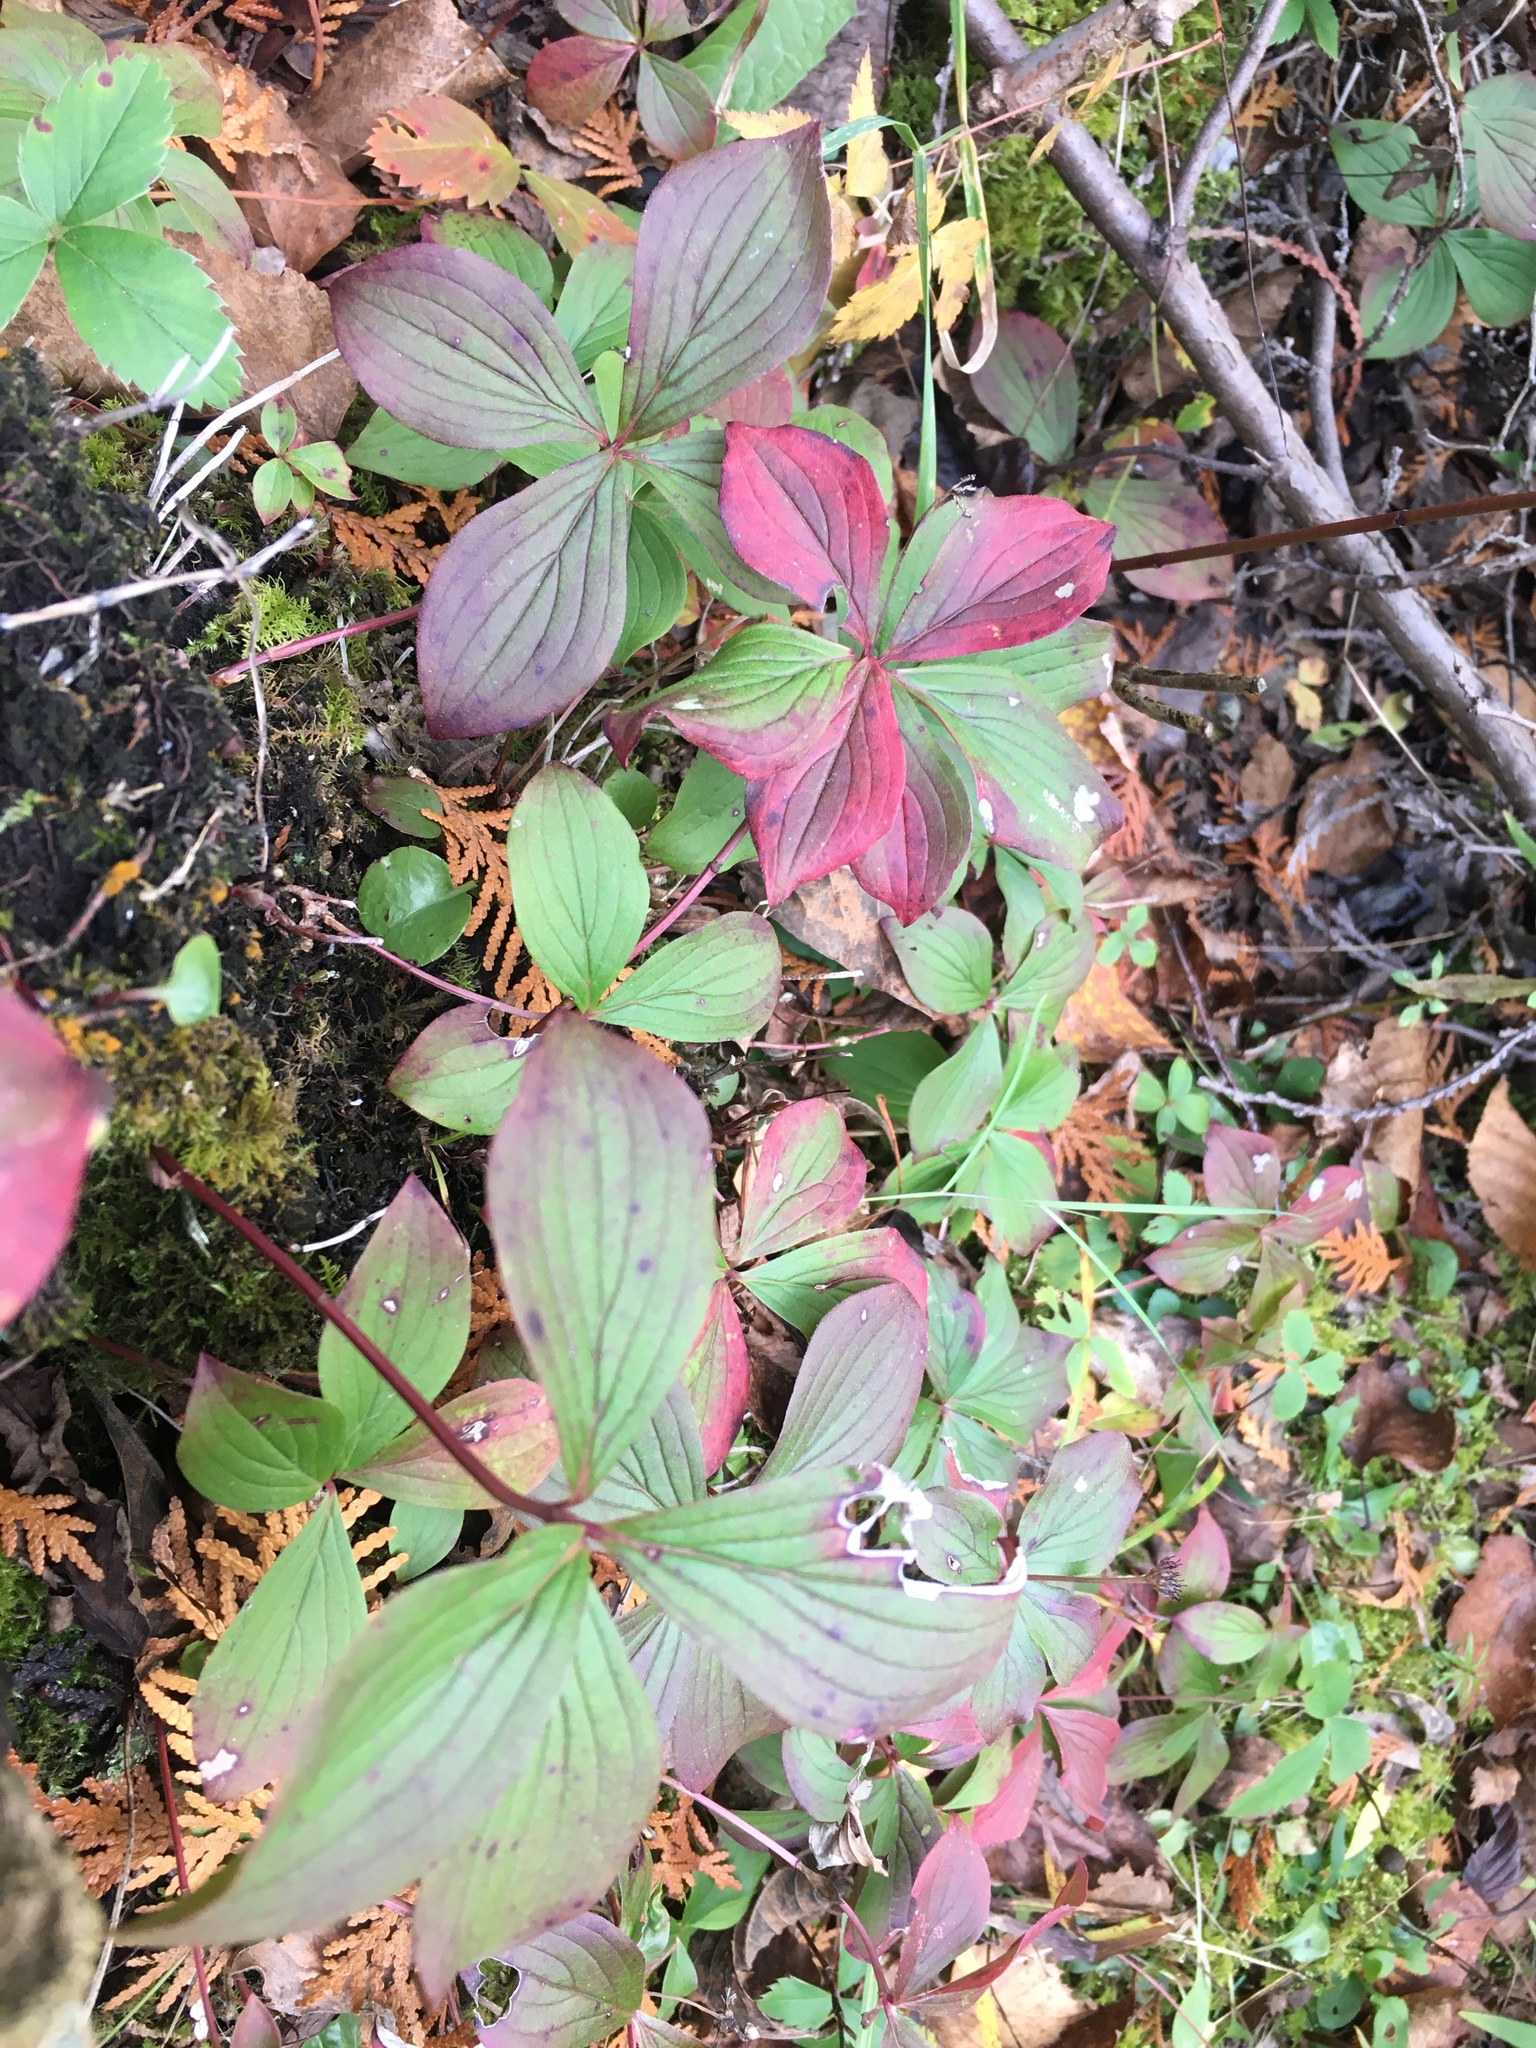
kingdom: Plantae
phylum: Tracheophyta
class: Magnoliopsida
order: Cornales
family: Cornaceae
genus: Cornus
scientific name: Cornus canadensis
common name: Creeping dogwood
